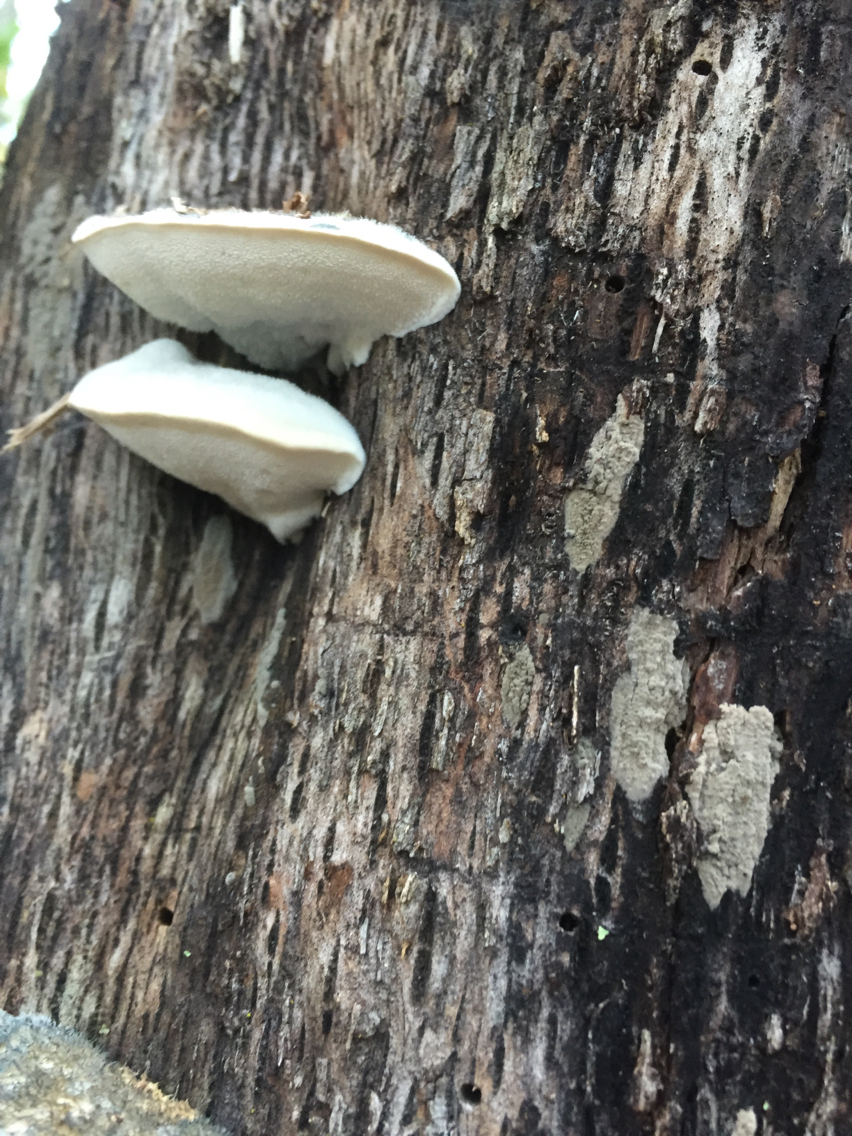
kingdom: Fungi
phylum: Basidiomycota
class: Agaricomycetes
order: Polyporales
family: Polyporaceae
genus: Cyanosporus
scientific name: Cyanosporus caesius
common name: Blue cheese polypore
